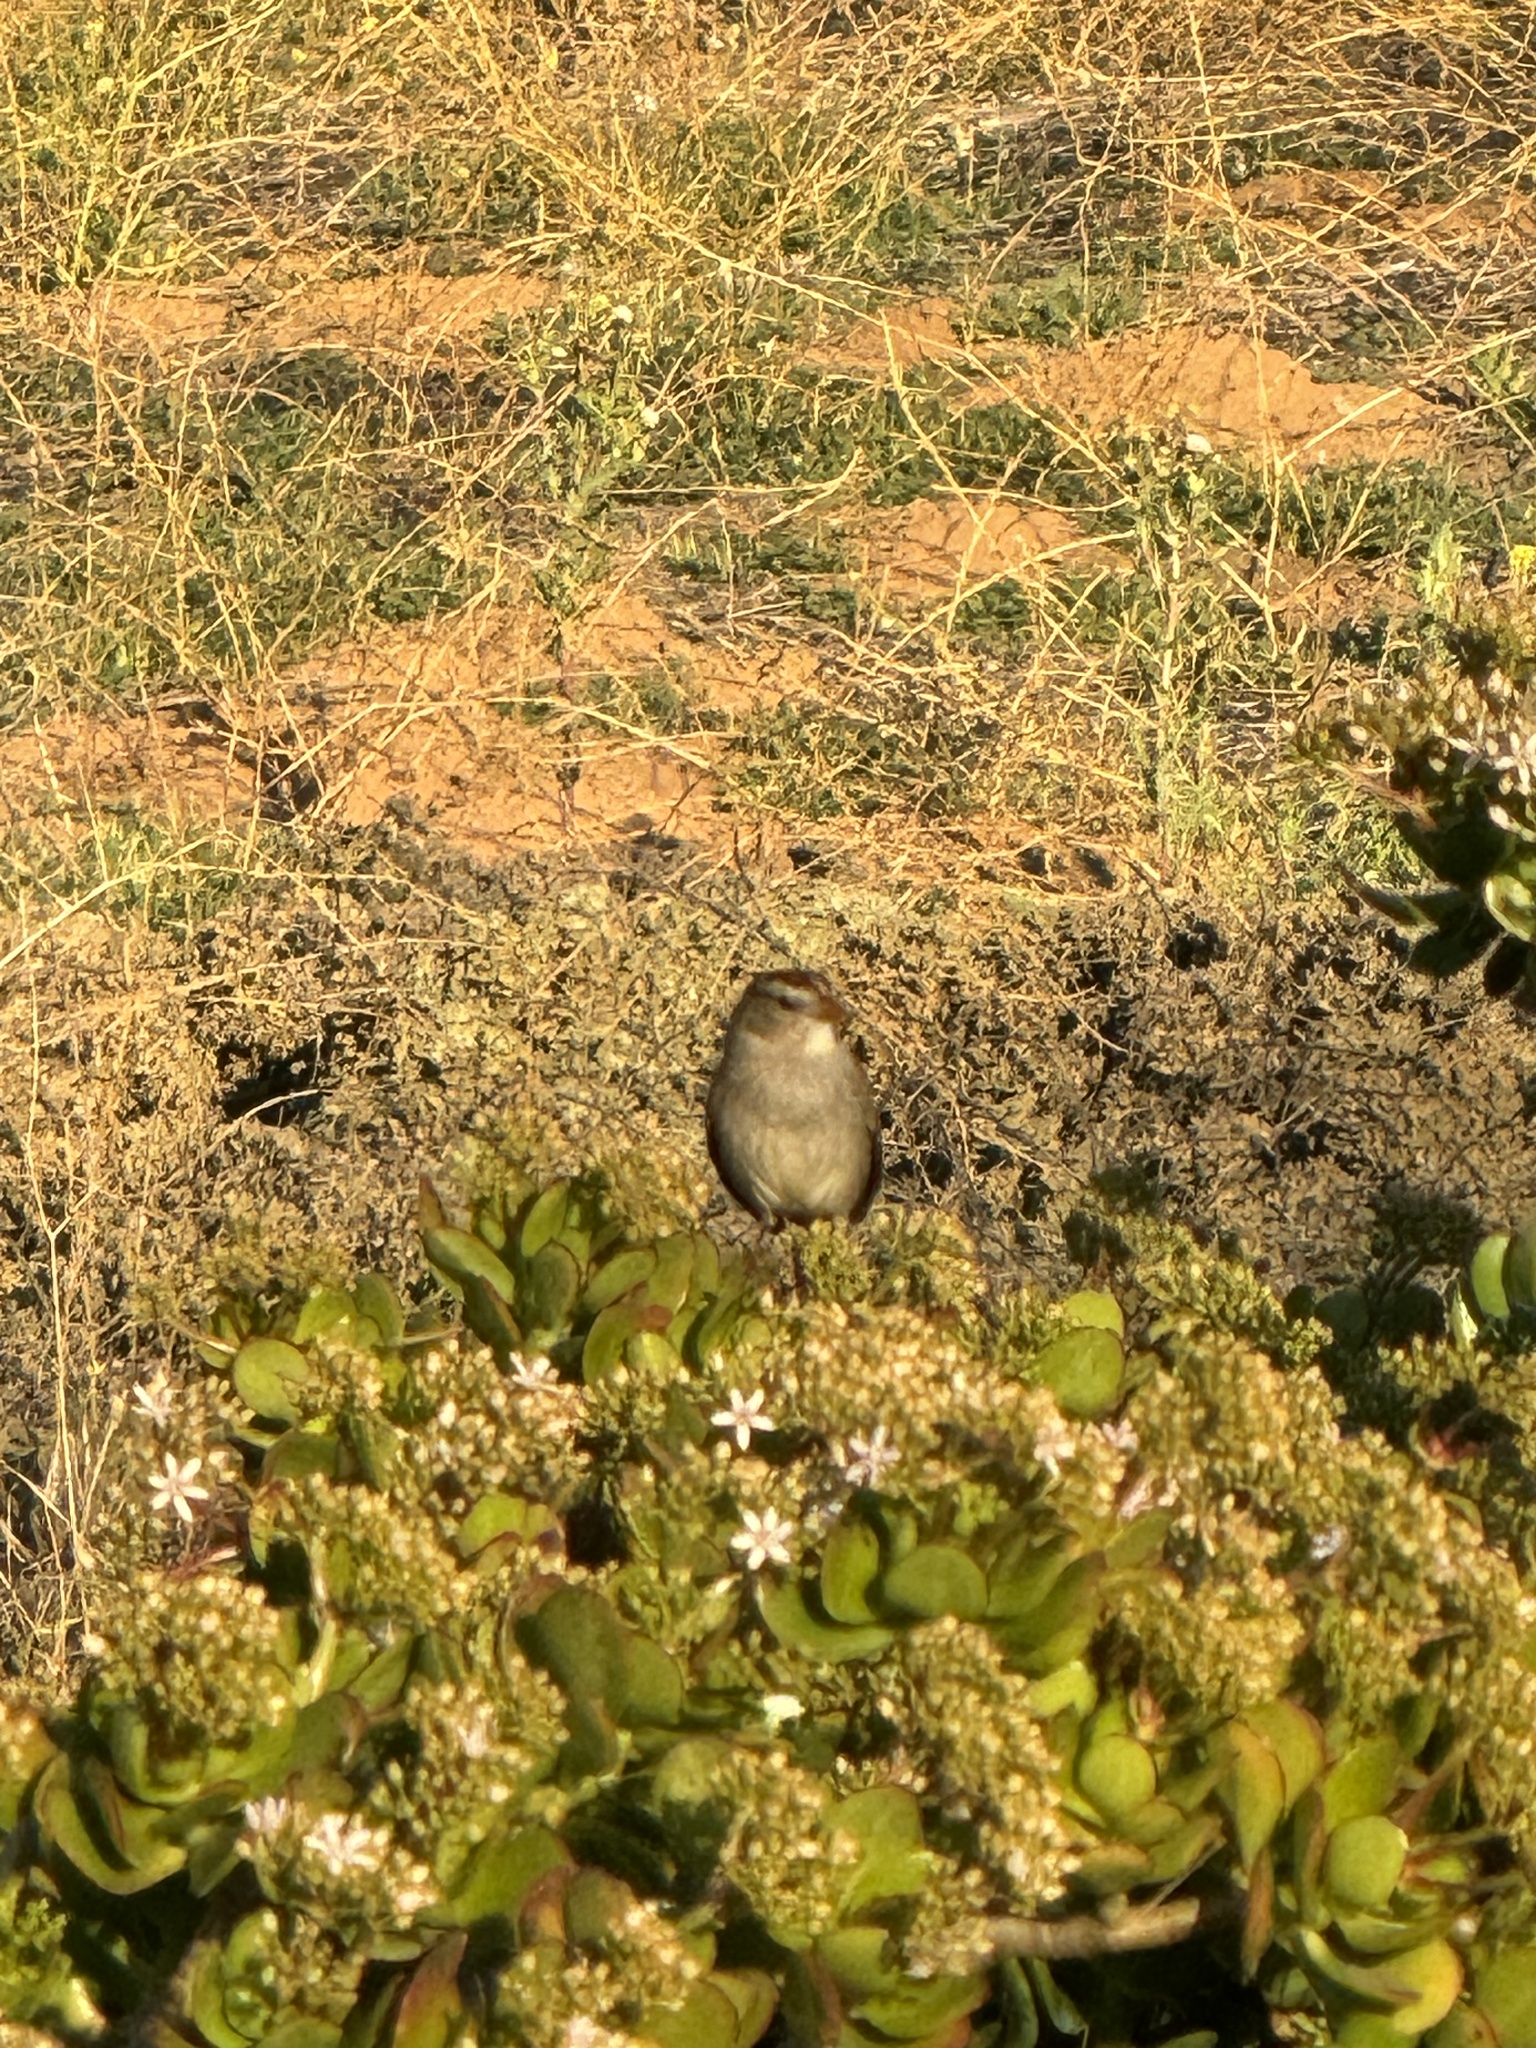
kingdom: Animalia
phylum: Chordata
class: Aves
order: Passeriformes
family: Passerellidae
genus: Zonotrichia
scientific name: Zonotrichia leucophrys
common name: White-crowned sparrow
